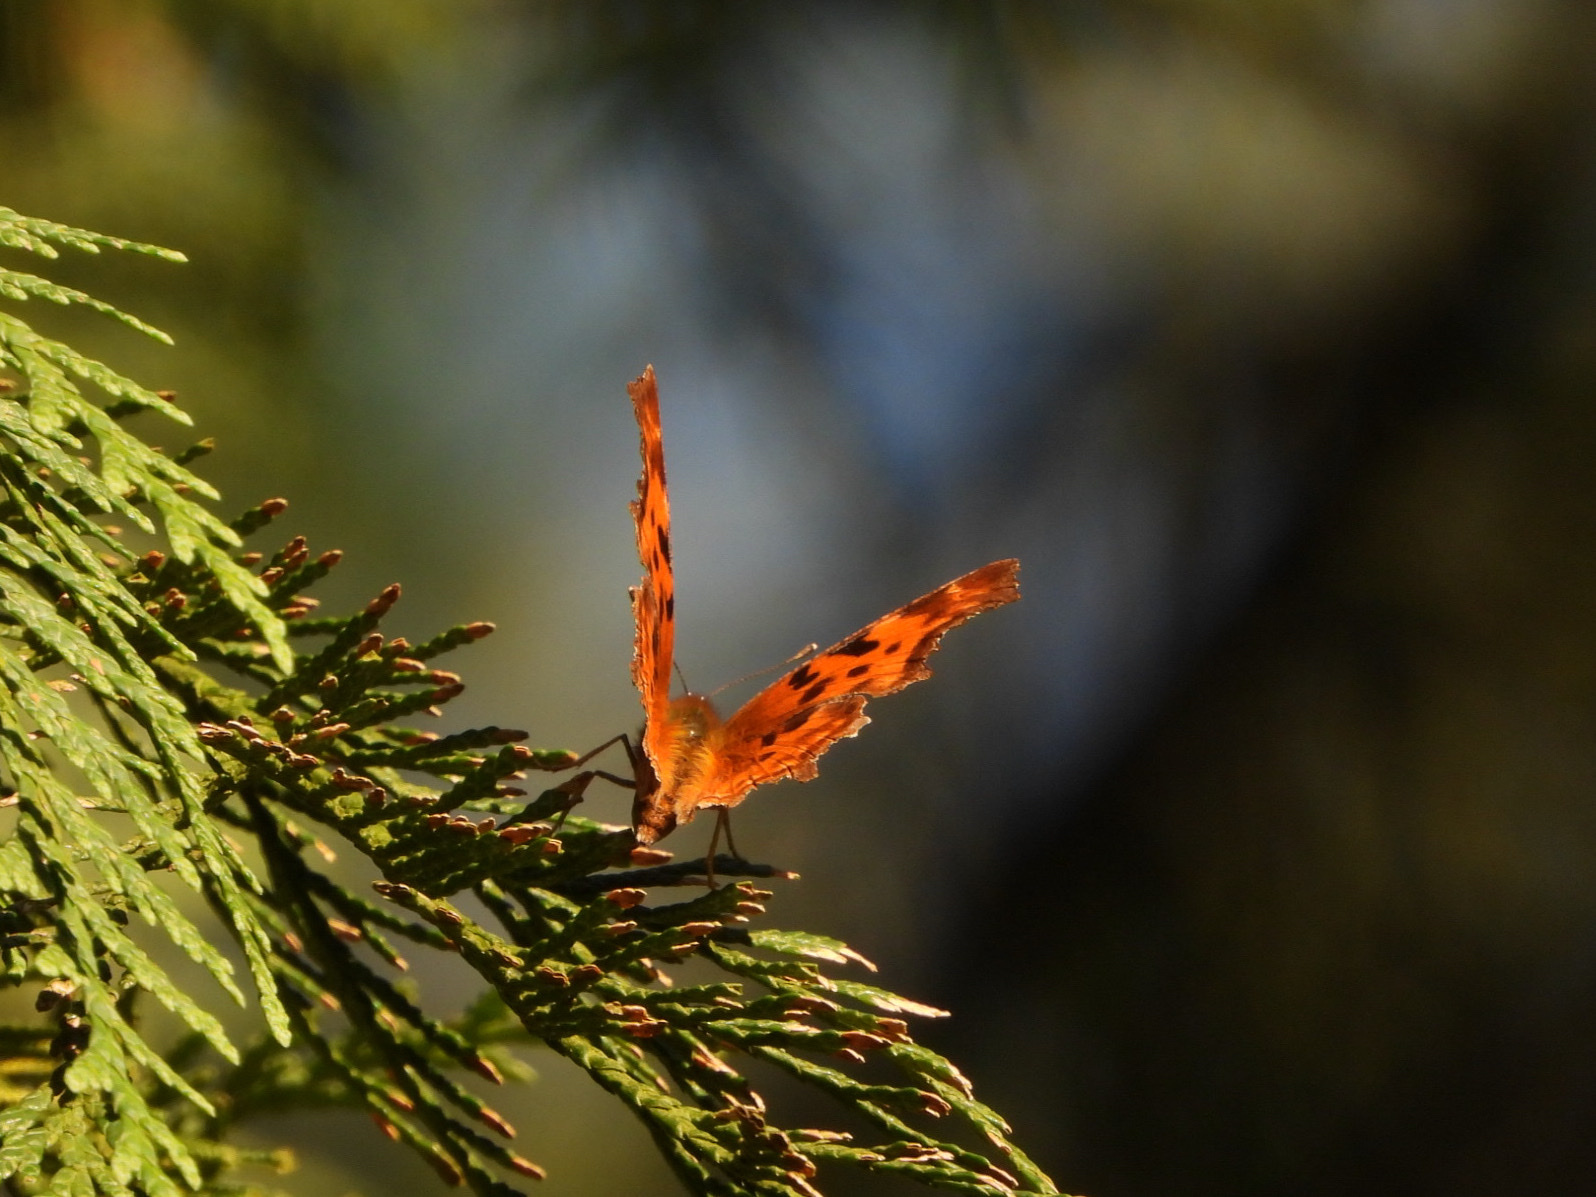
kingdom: Animalia
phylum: Arthropoda
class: Insecta
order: Lepidoptera
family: Nymphalidae
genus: Polygonia
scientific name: Polygonia satyrus
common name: Satyr angle wing
